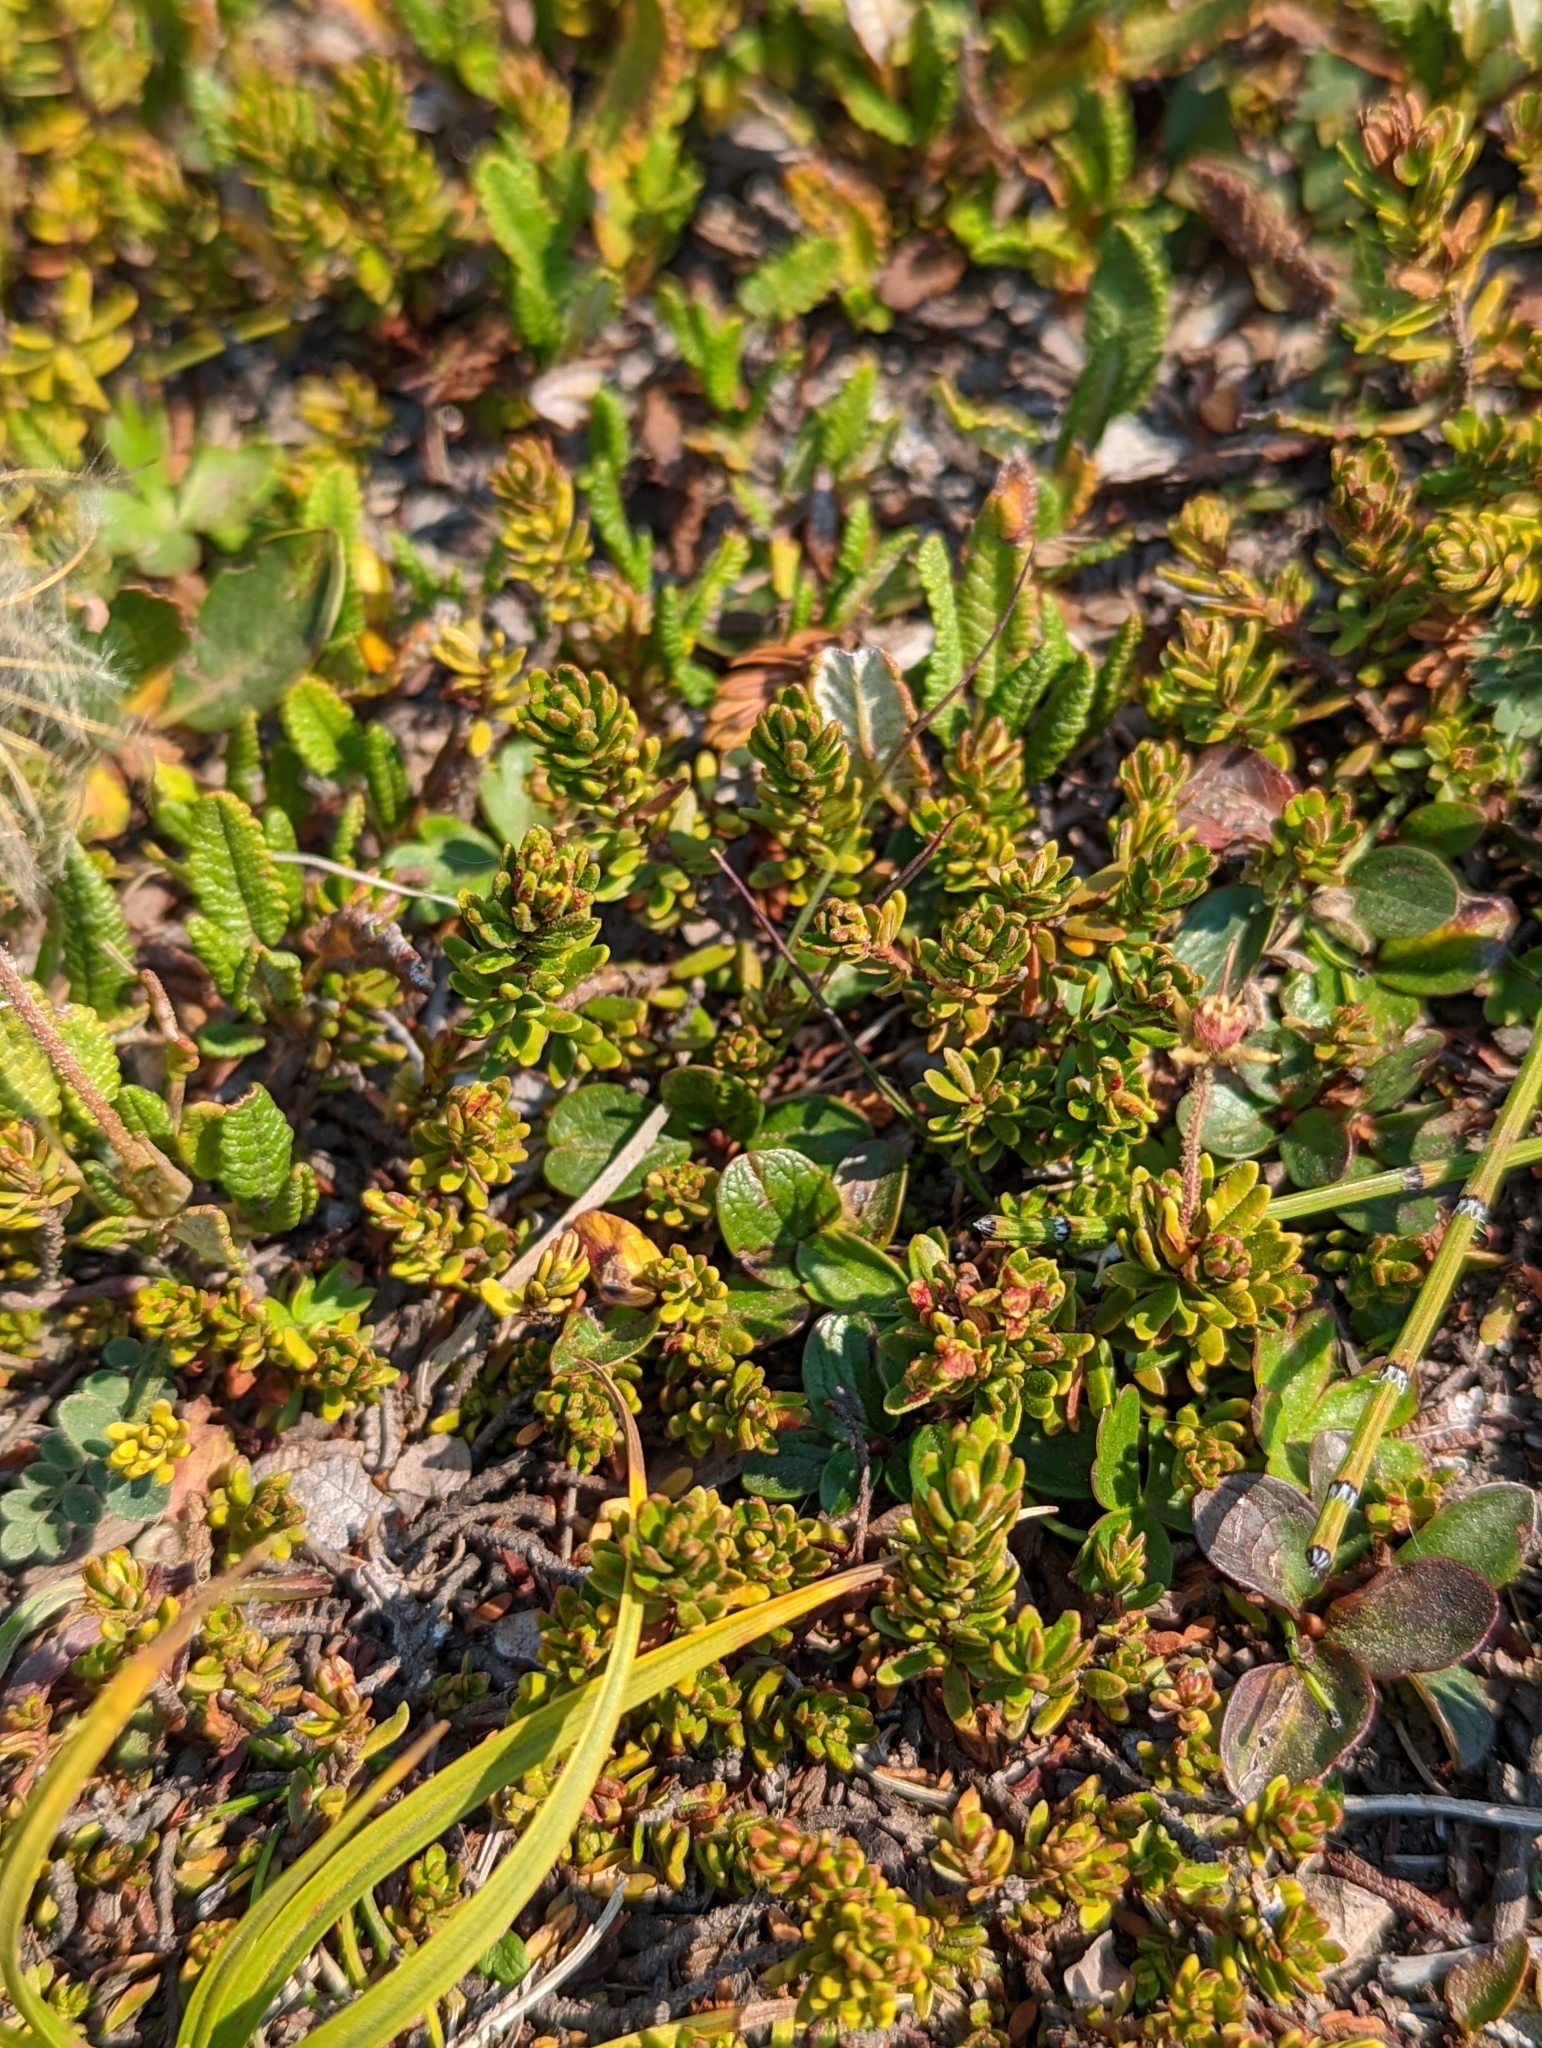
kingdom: Plantae
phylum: Tracheophyta
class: Magnoliopsida
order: Ericales
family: Ericaceae
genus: Phyllodoce
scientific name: Phyllodoce glanduliflora
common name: Cream mountain heather
